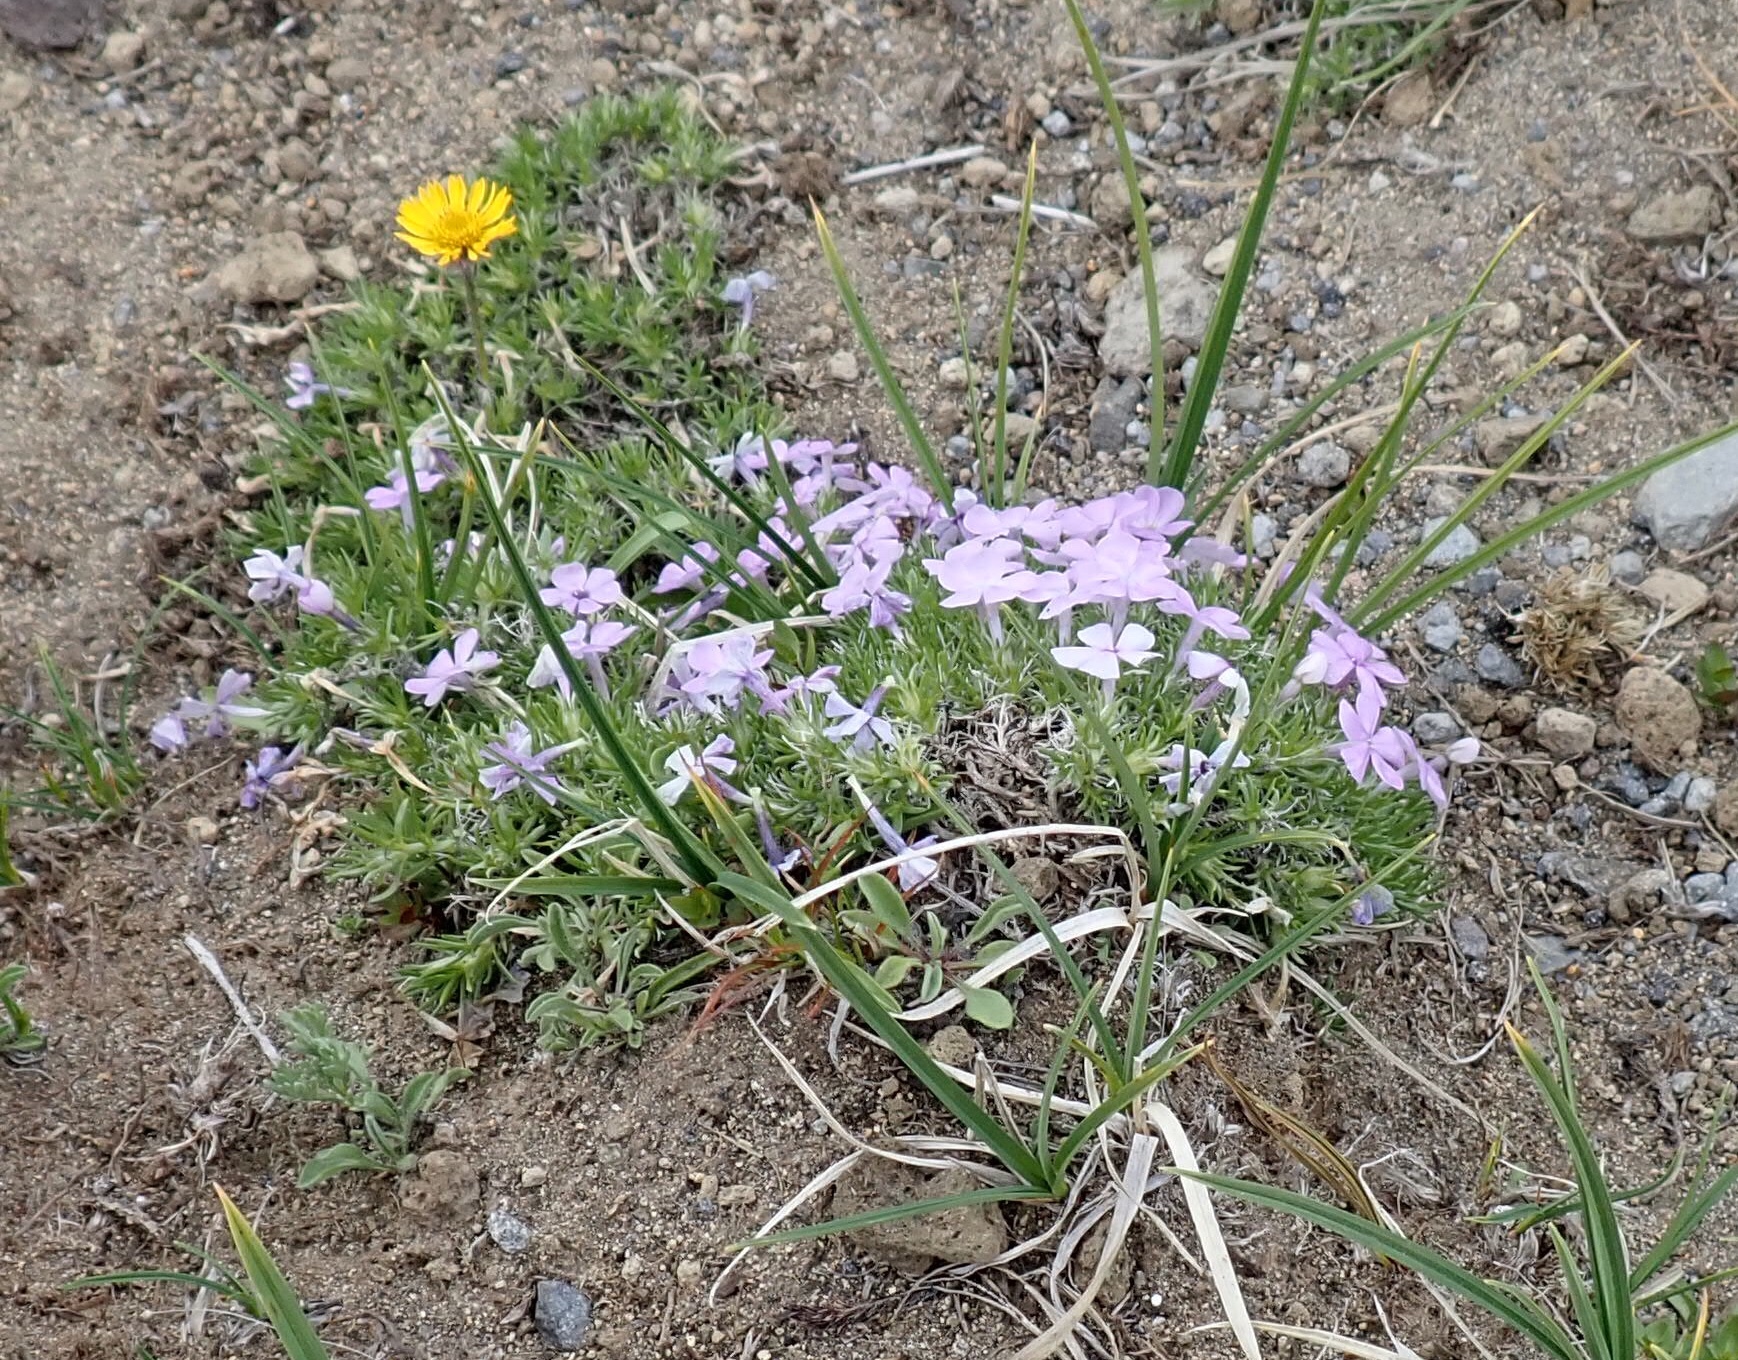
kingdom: Plantae
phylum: Tracheophyta
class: Magnoliopsida
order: Ericales
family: Polemoniaceae
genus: Phlox
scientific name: Phlox diffusa
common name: Mat phlox
